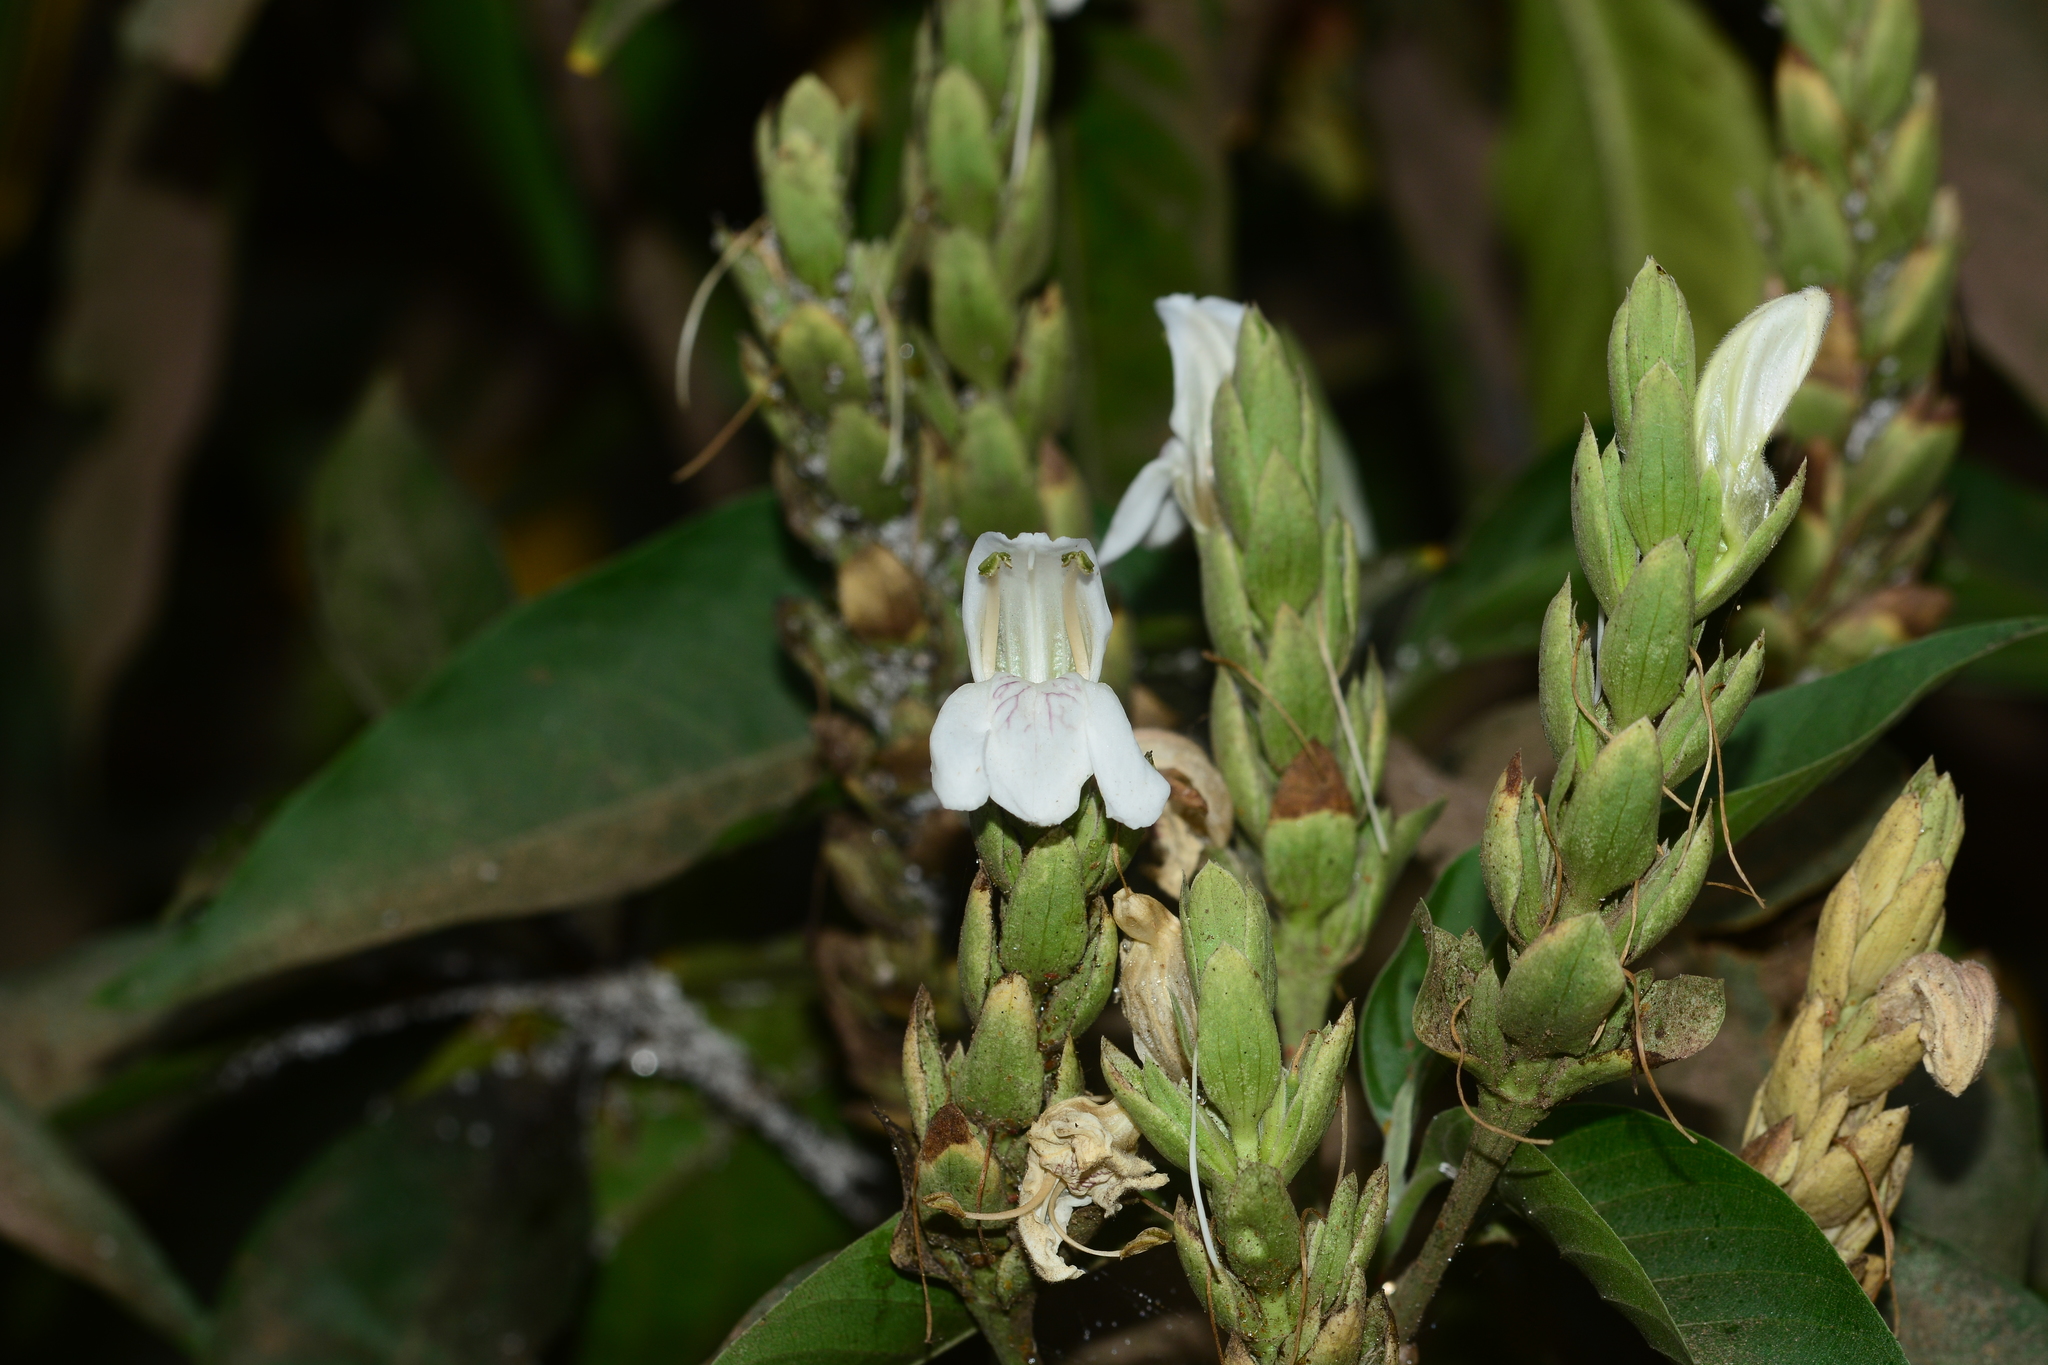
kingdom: Plantae
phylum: Tracheophyta
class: Magnoliopsida
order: Lamiales
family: Acanthaceae
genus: Justicia
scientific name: Justicia adhatoda
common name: Malabar nut
